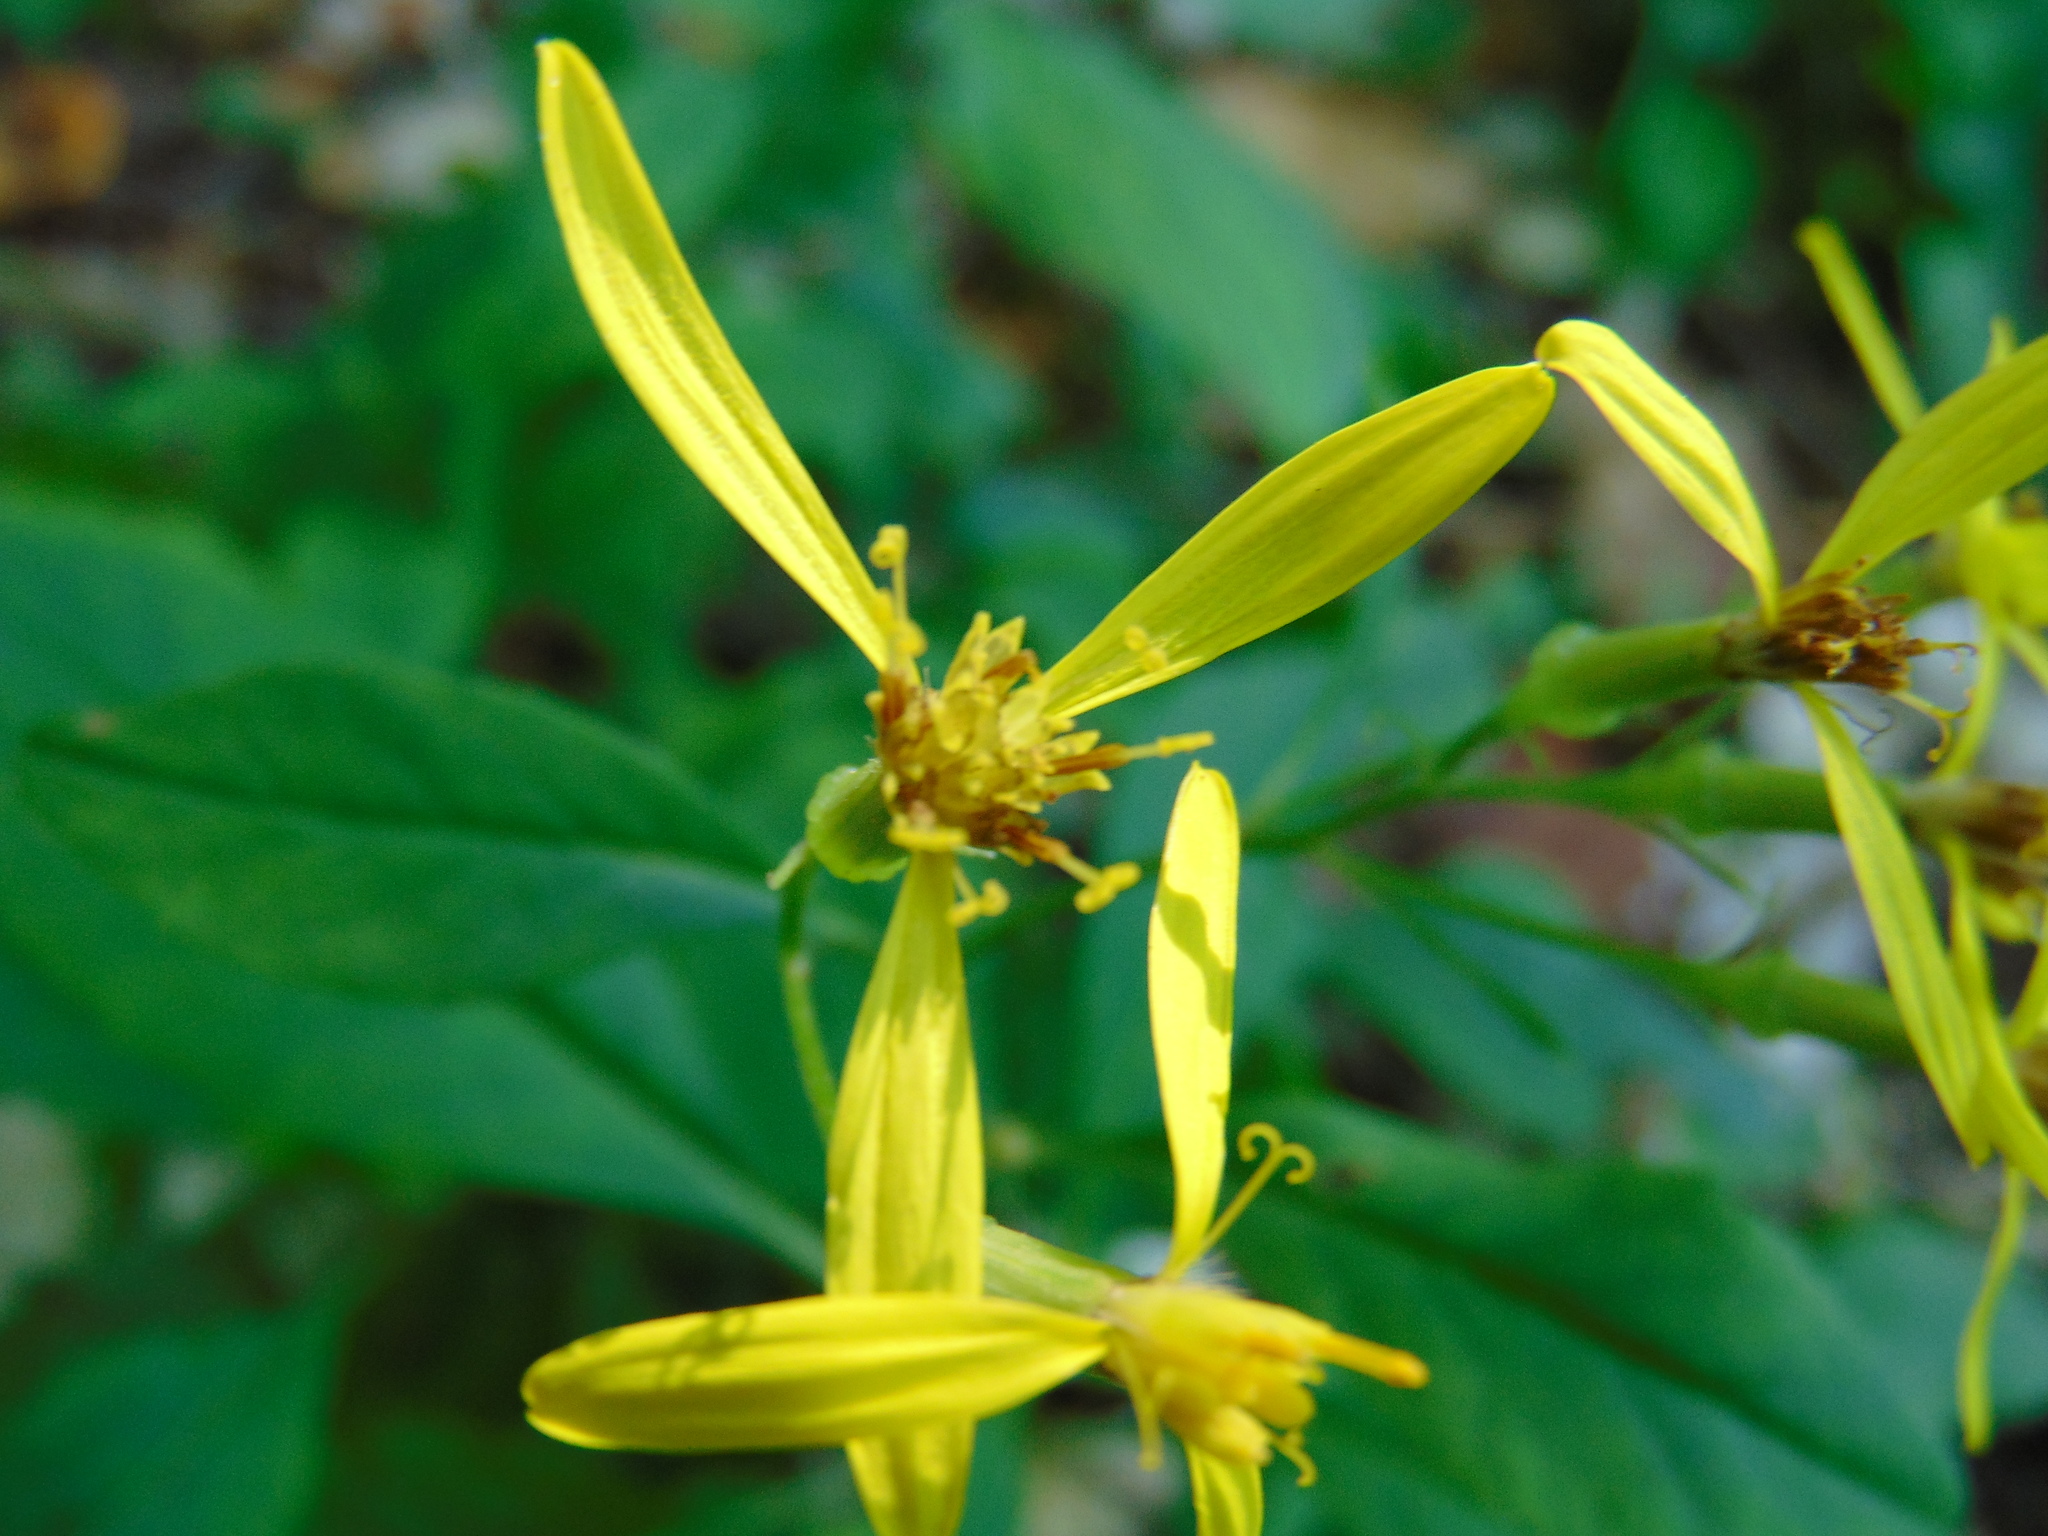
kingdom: Plantae
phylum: Tracheophyta
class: Magnoliopsida
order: Asterales
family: Asteraceae
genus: Senecio
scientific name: Senecio ovatus
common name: Wood ragwort
